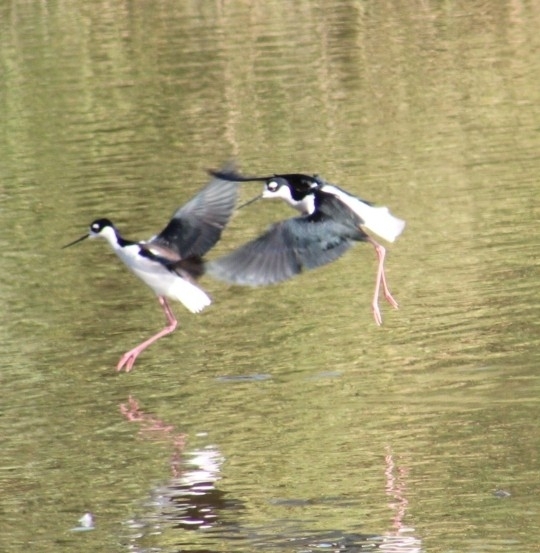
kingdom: Animalia
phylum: Chordata
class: Aves
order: Charadriiformes
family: Recurvirostridae
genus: Himantopus
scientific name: Himantopus mexicanus
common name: Black-necked stilt
